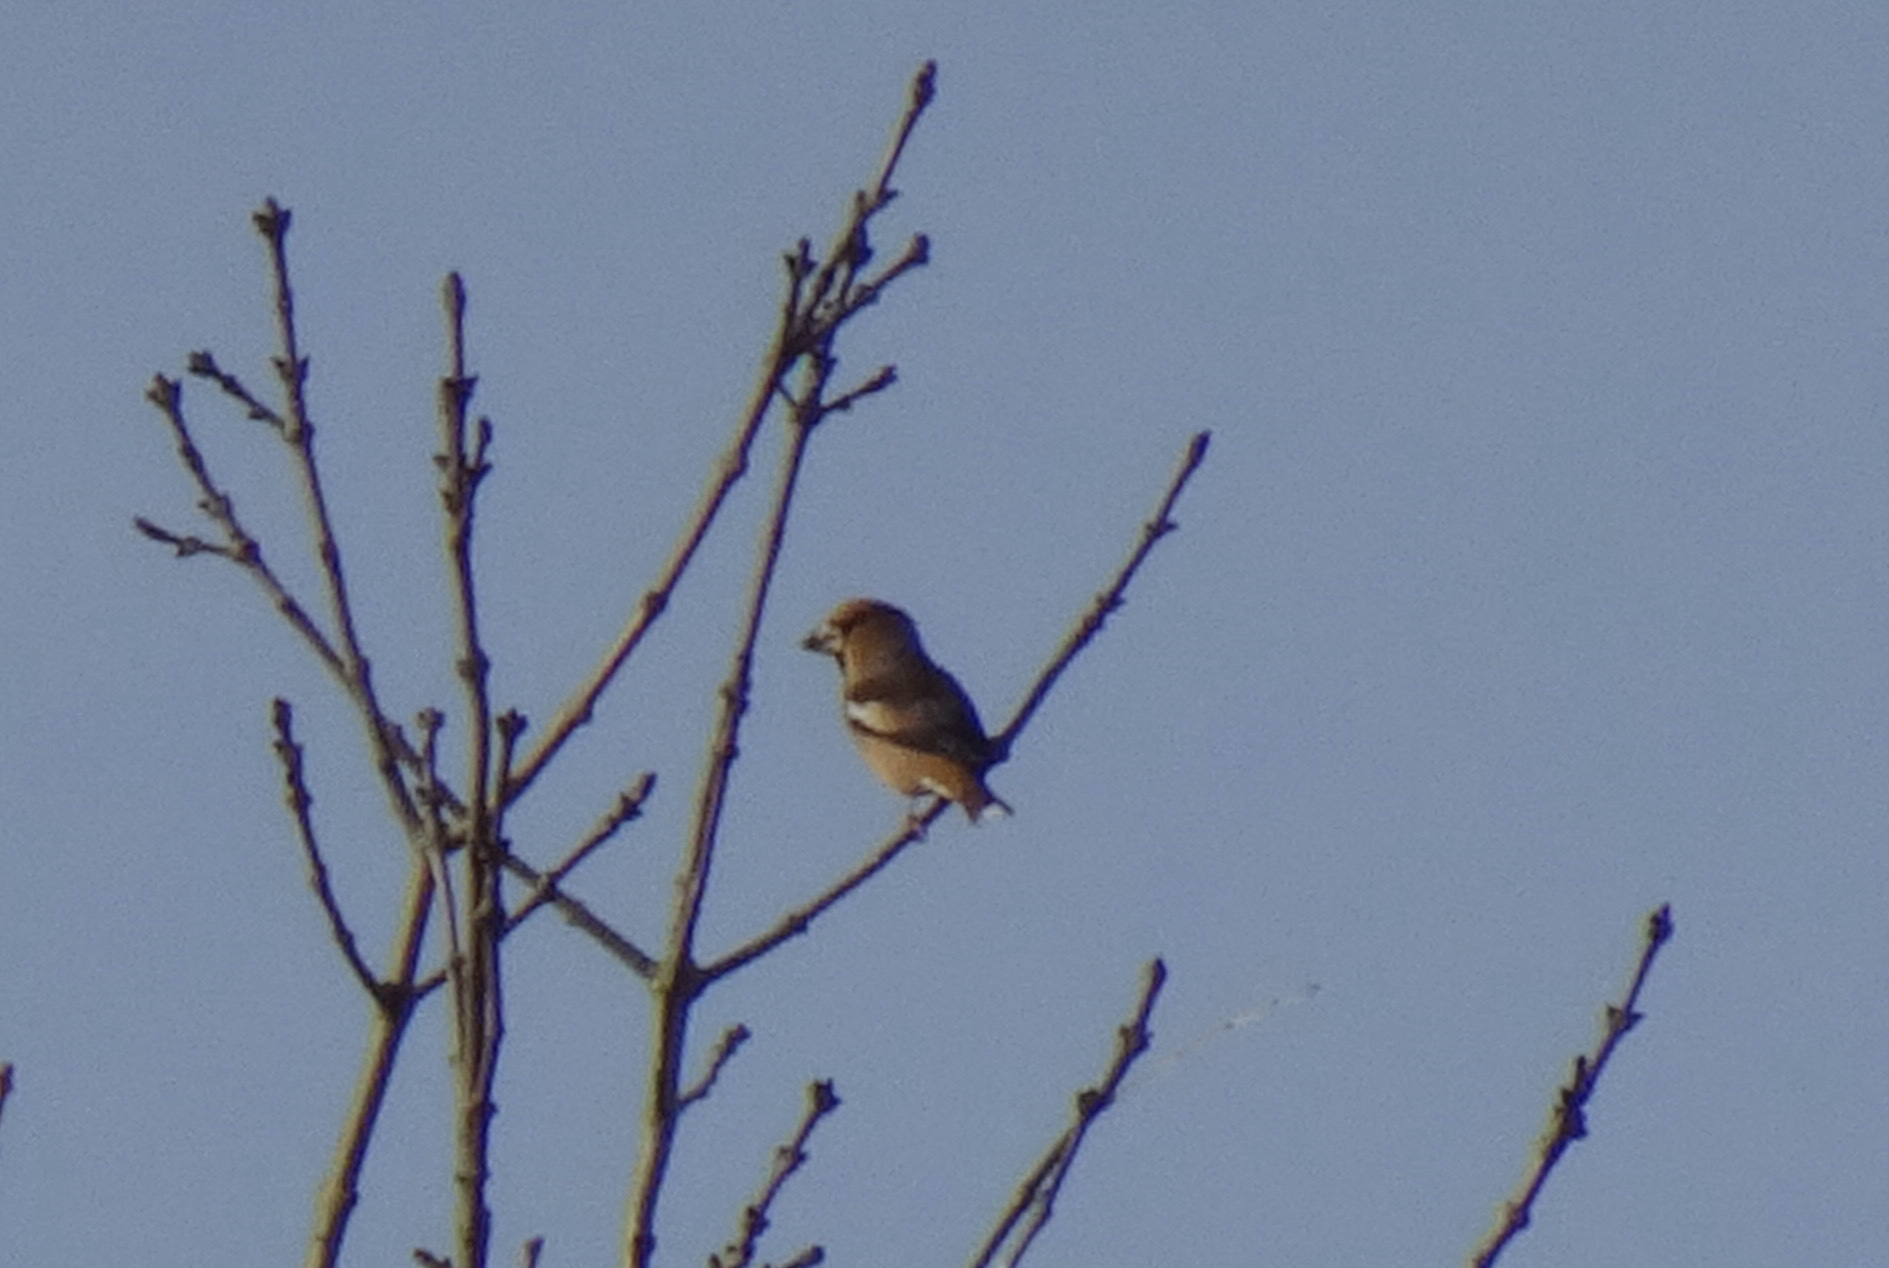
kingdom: Animalia
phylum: Chordata
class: Aves
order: Passeriformes
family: Fringillidae
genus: Coccothraustes
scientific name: Coccothraustes coccothraustes
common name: Hawfinch
